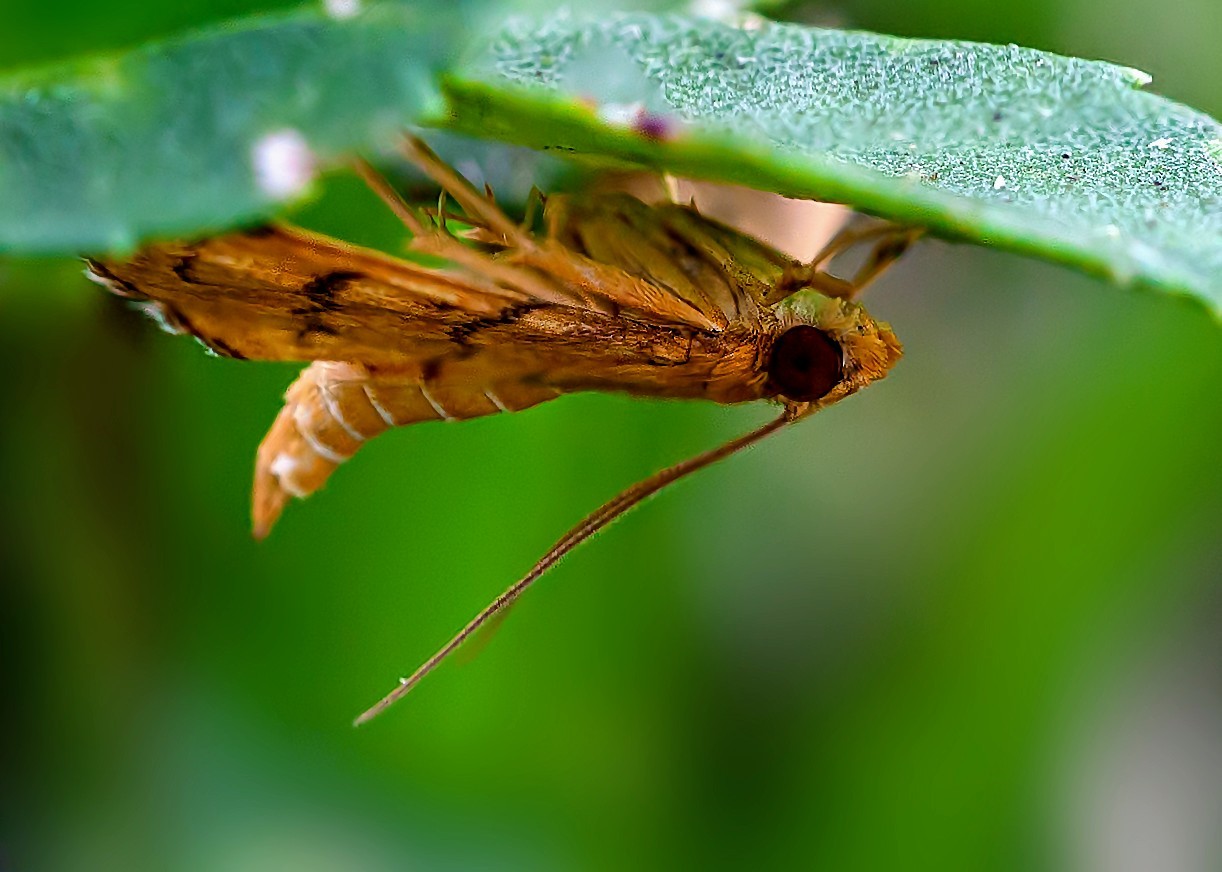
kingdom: Animalia
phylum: Arthropoda
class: Insecta
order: Lepidoptera
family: Crambidae
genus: Omiodes
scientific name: Omiodes indicata
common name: Bean-leaf webworm moth
